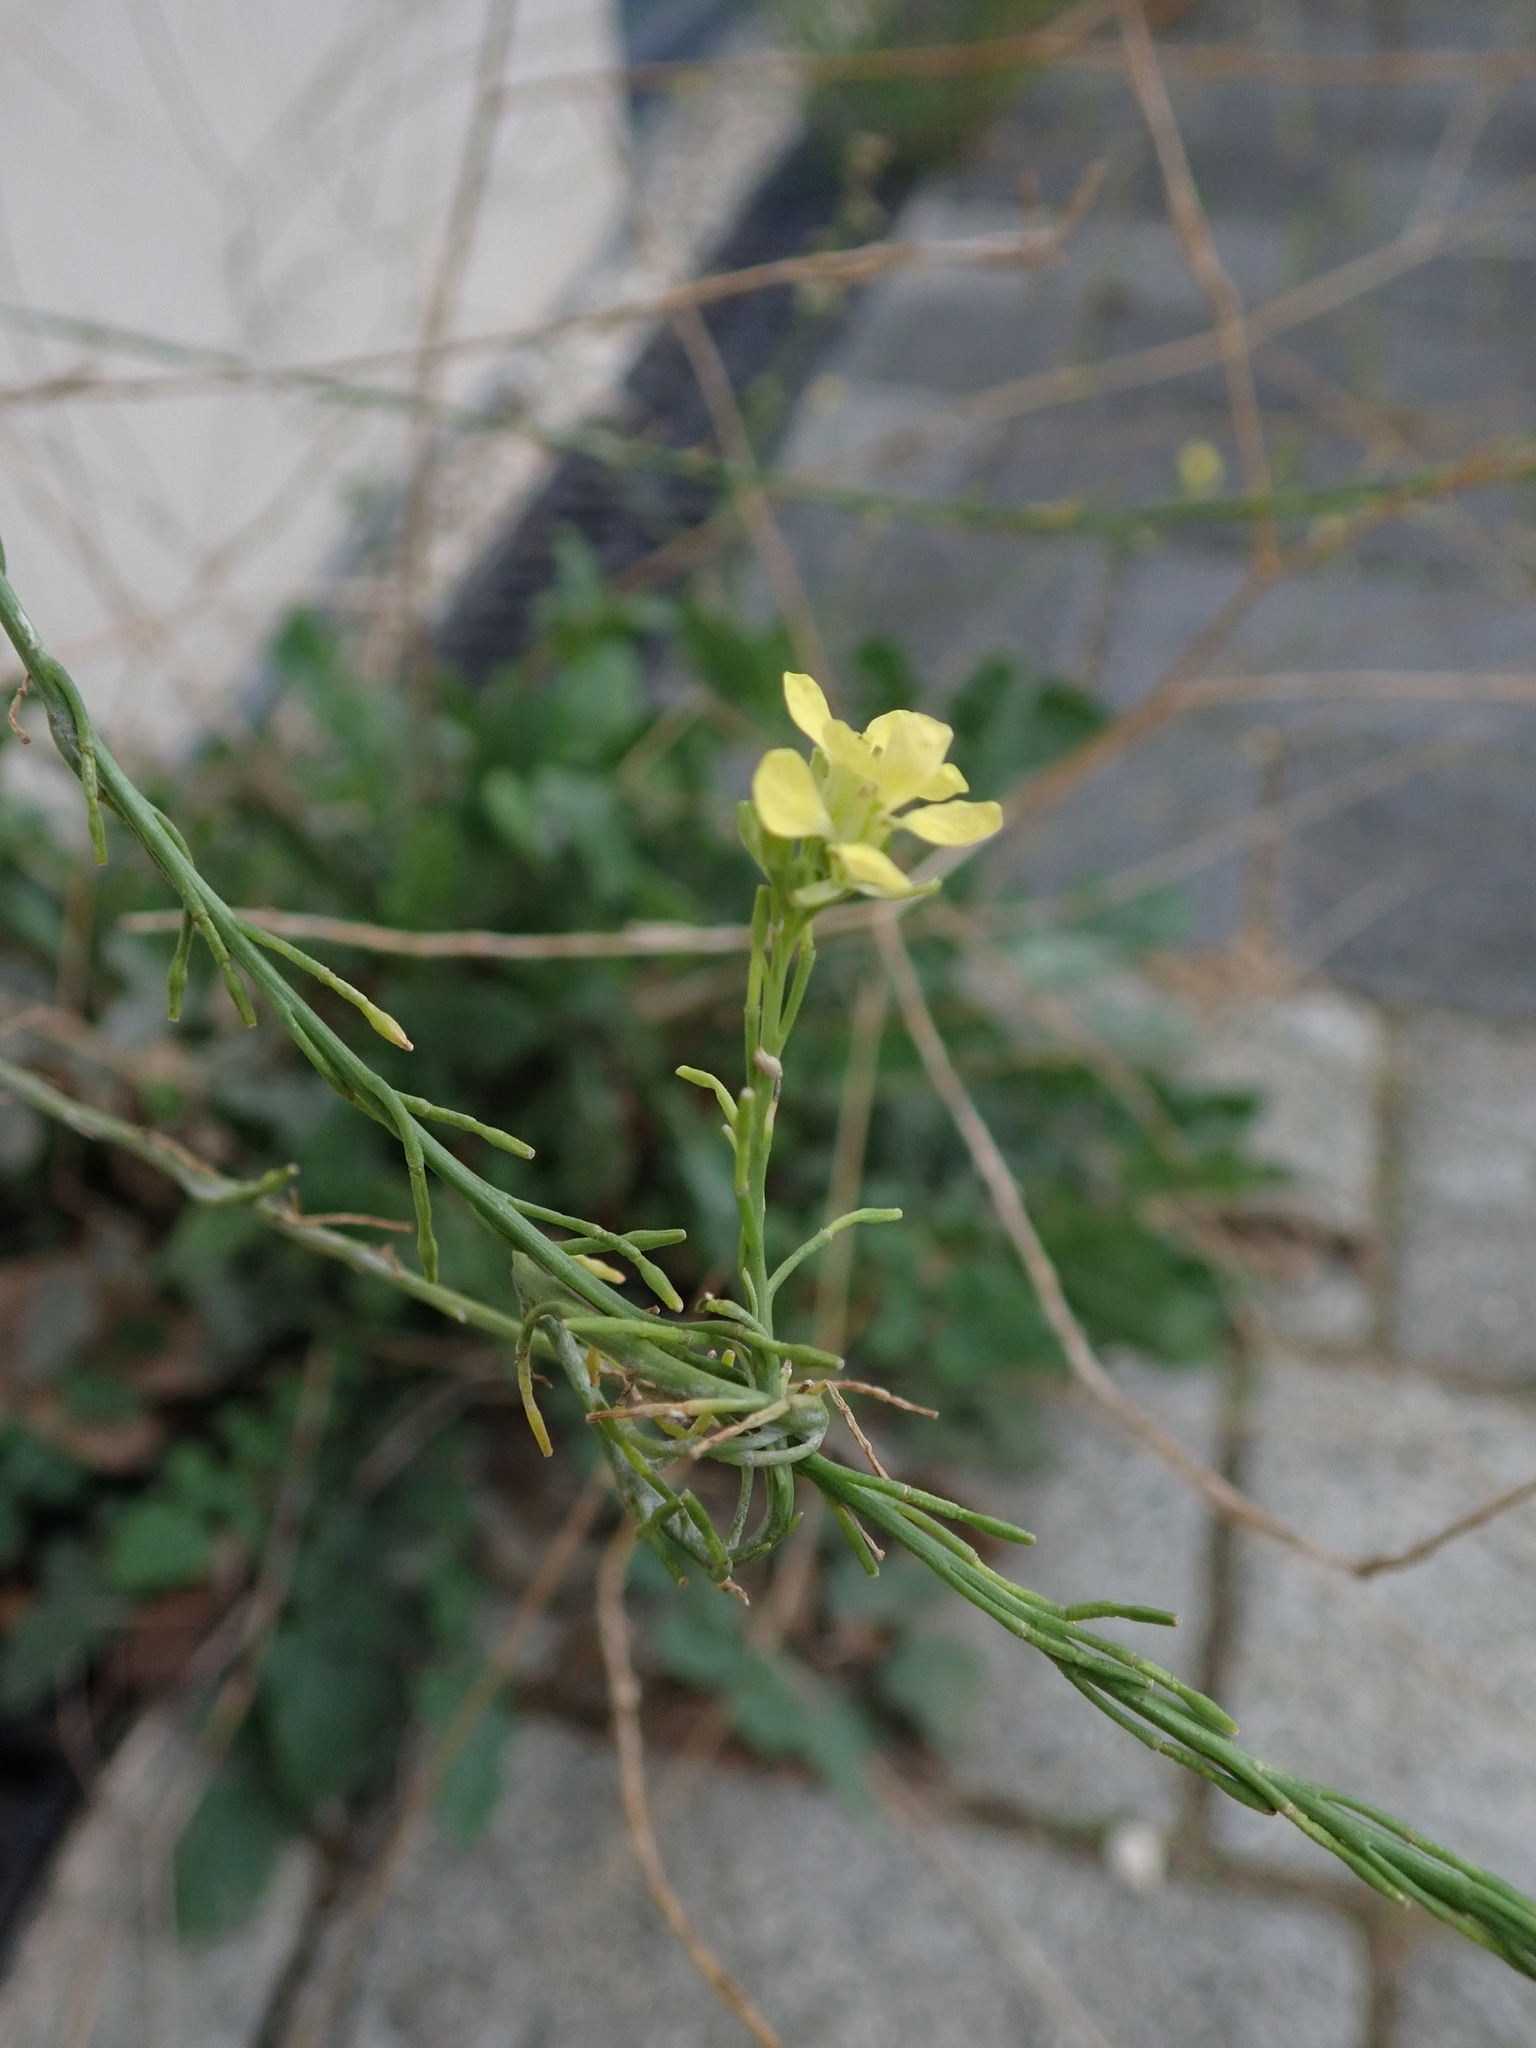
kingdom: Plantae
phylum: Tracheophyta
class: Magnoliopsida
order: Brassicales
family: Brassicaceae
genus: Hirschfeldia
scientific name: Hirschfeldia incana
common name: Hoary mustard
